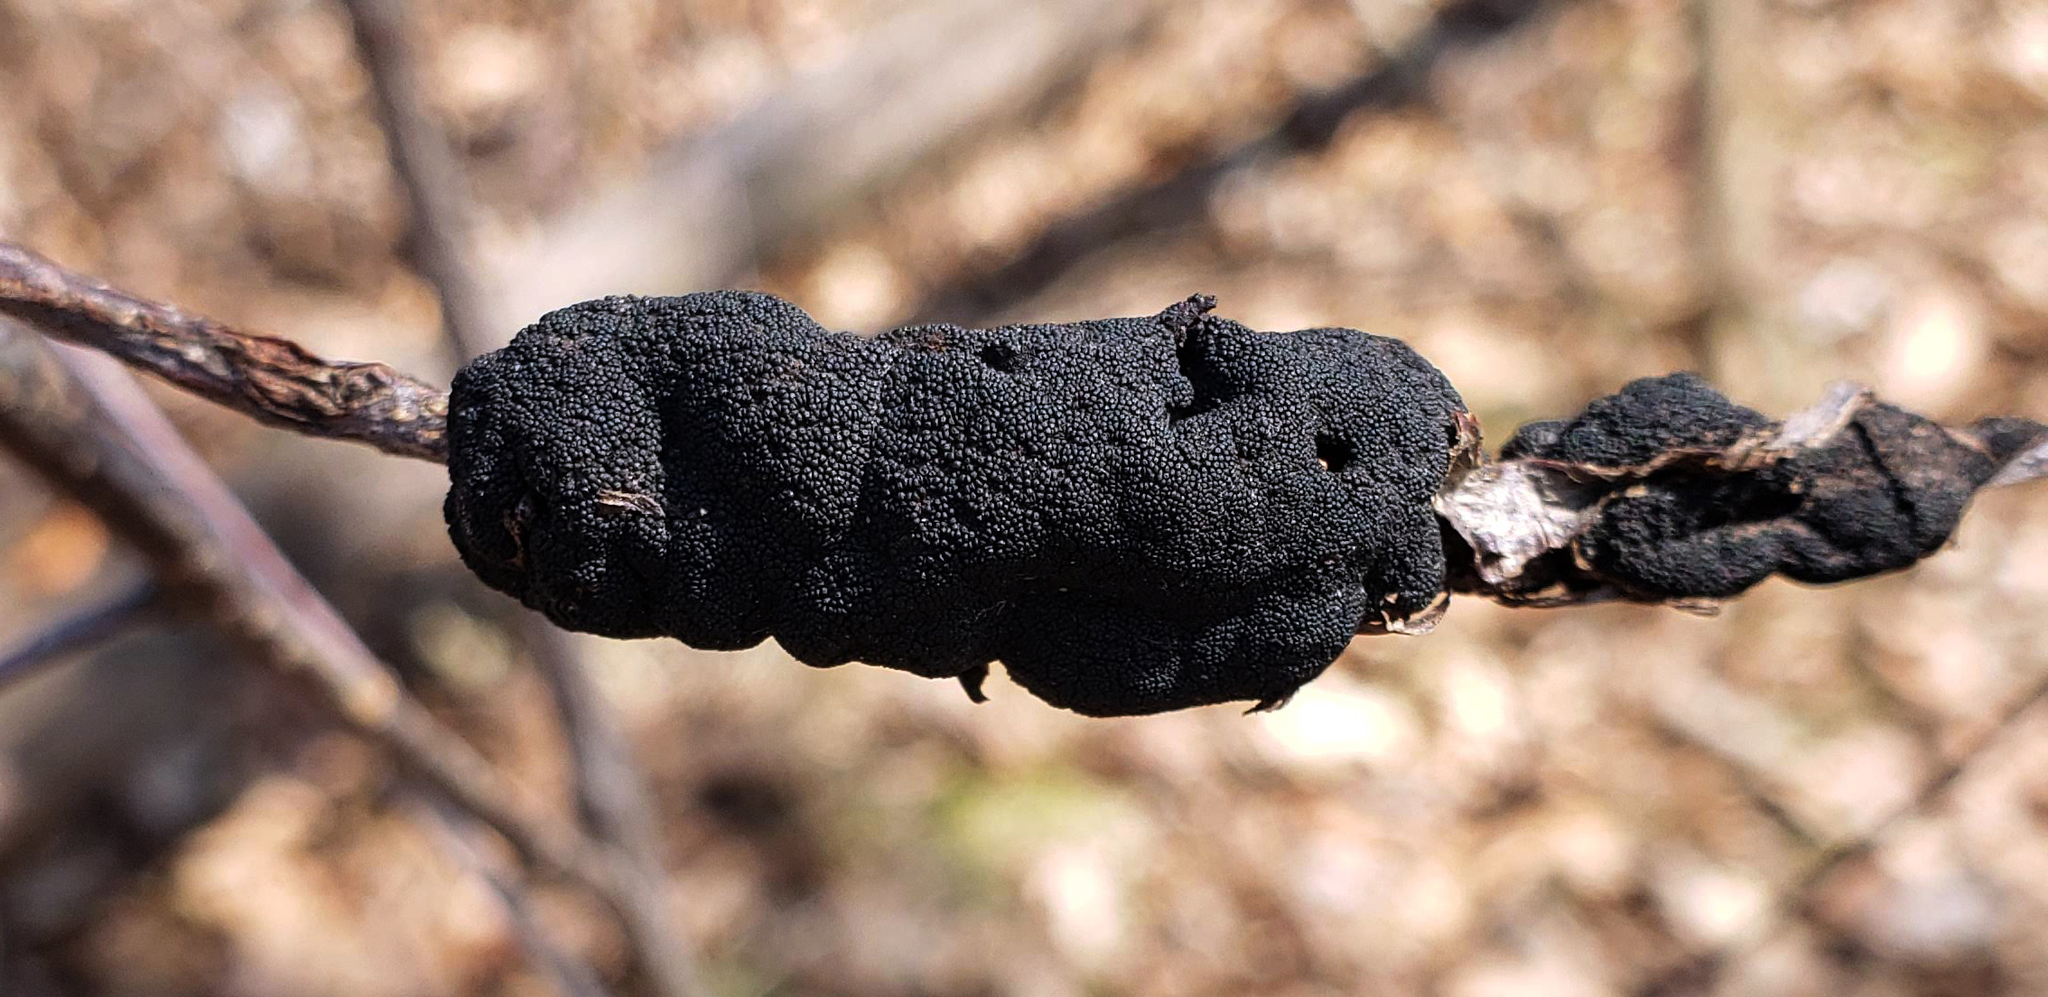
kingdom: Fungi
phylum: Ascomycota
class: Dothideomycetes
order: Venturiales
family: Venturiaceae
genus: Apiosporina
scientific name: Apiosporina morbosa
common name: Black knot
